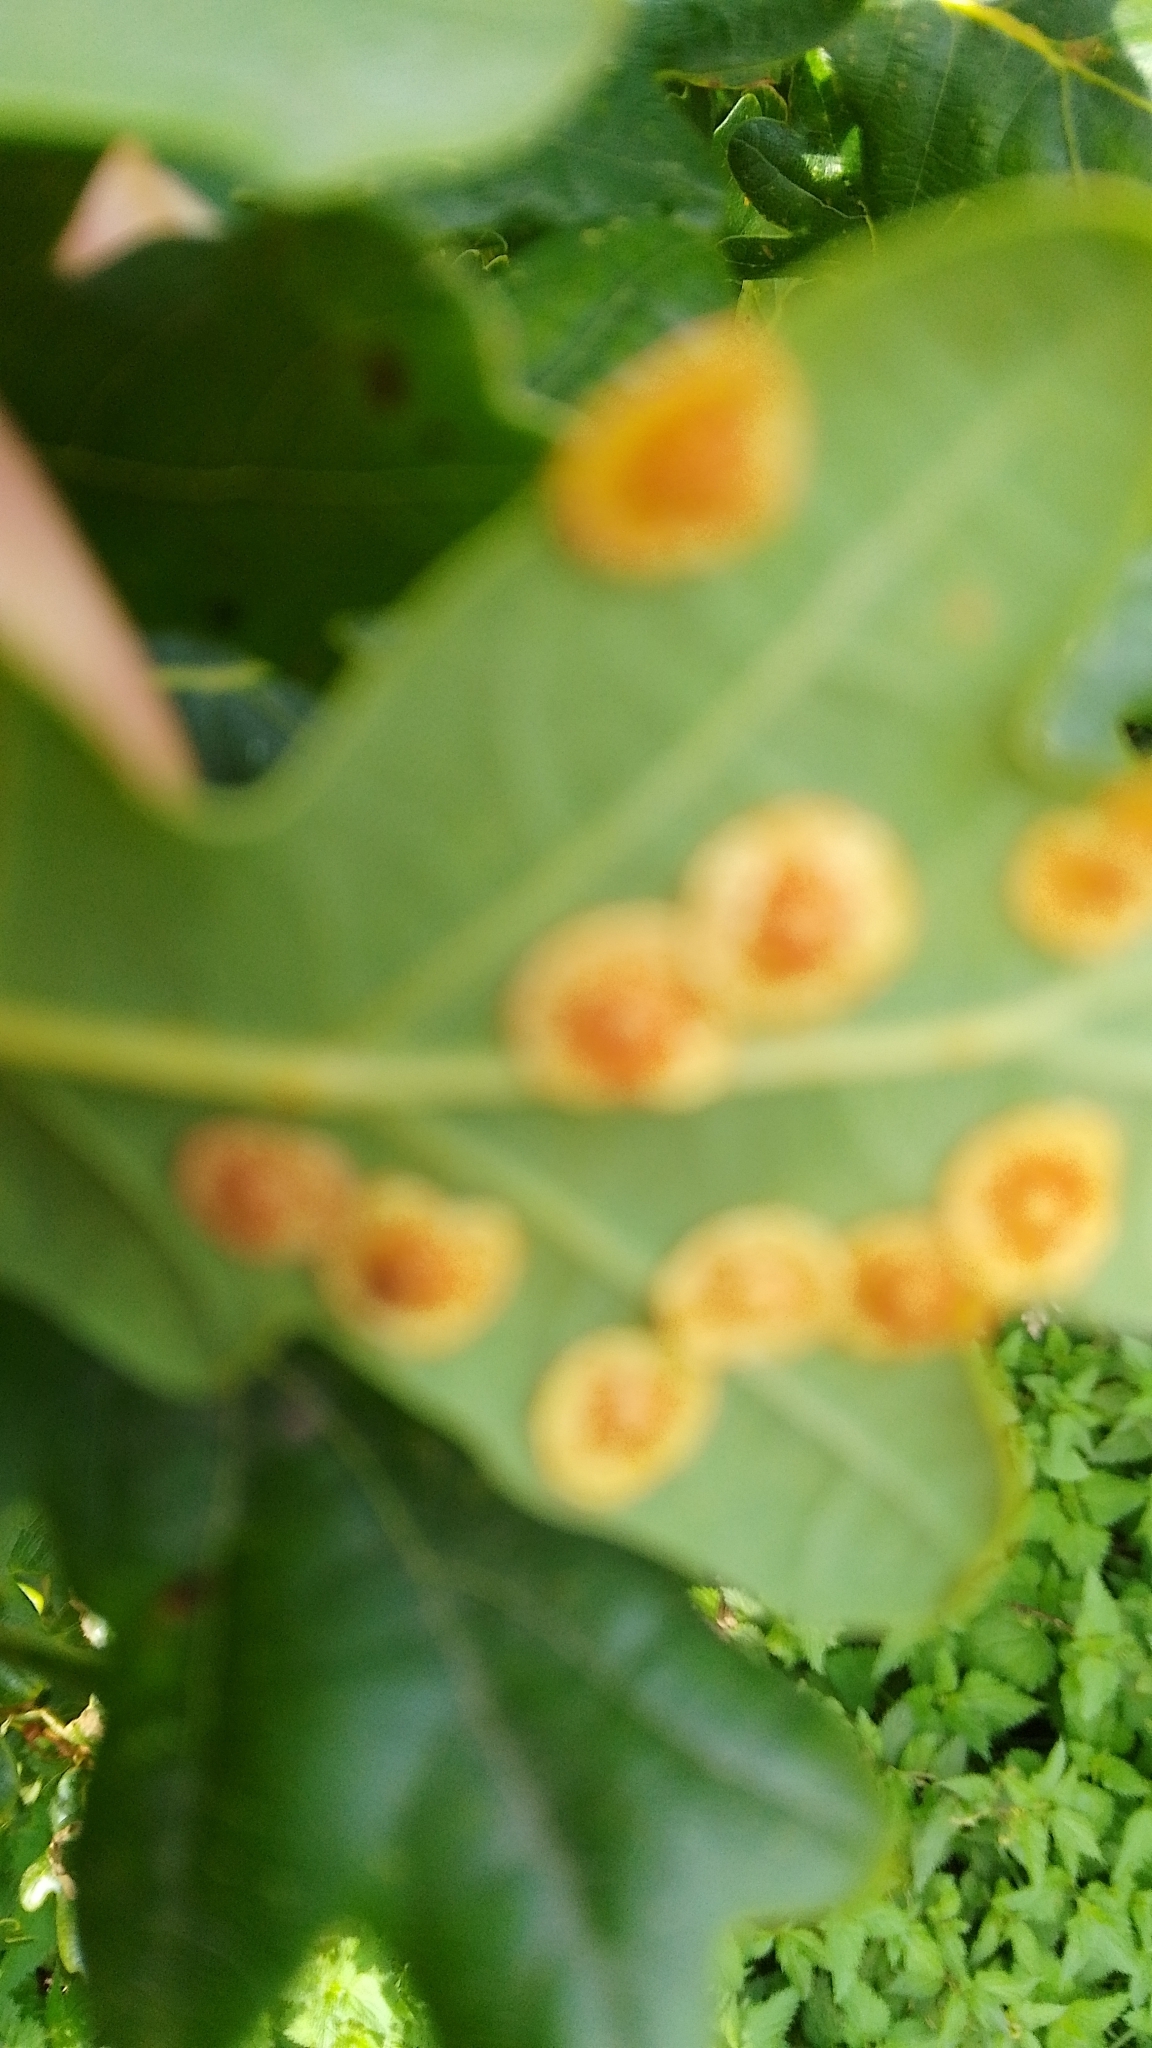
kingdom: Animalia
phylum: Arthropoda
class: Insecta
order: Hymenoptera
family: Cynipidae
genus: Neuroterus
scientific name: Neuroterus quercusbaccarum
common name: Common spangle gall
